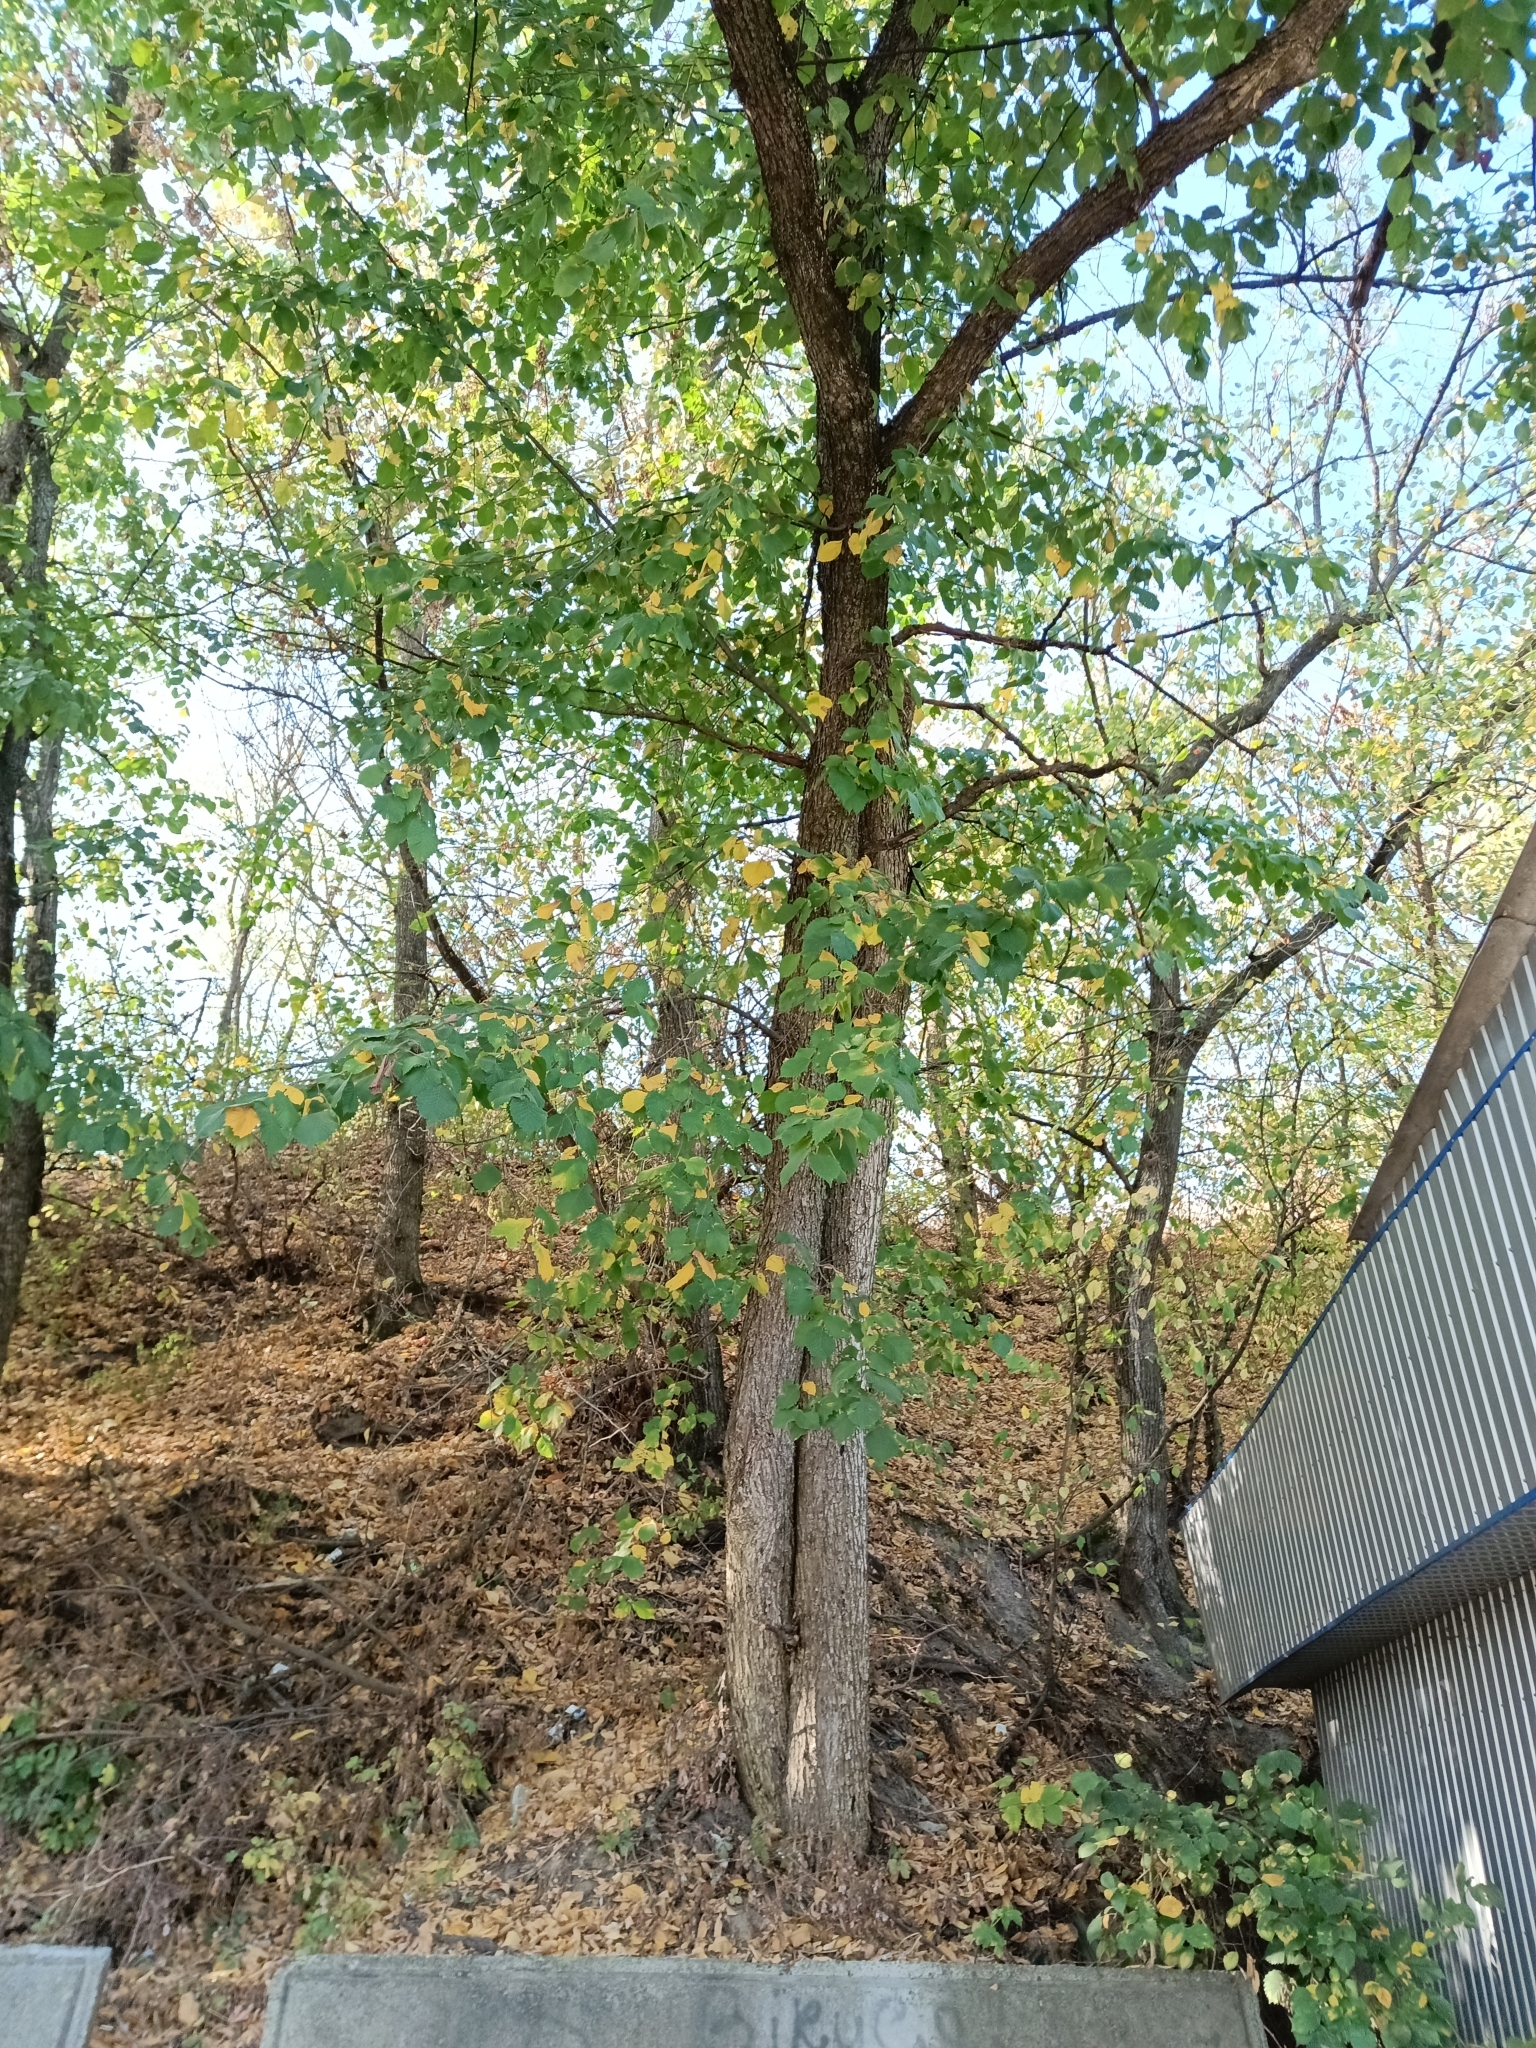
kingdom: Plantae
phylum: Tracheophyta
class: Magnoliopsida
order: Rosales
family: Ulmaceae
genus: Ulmus
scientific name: Ulmus laevis
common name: European white-elm
